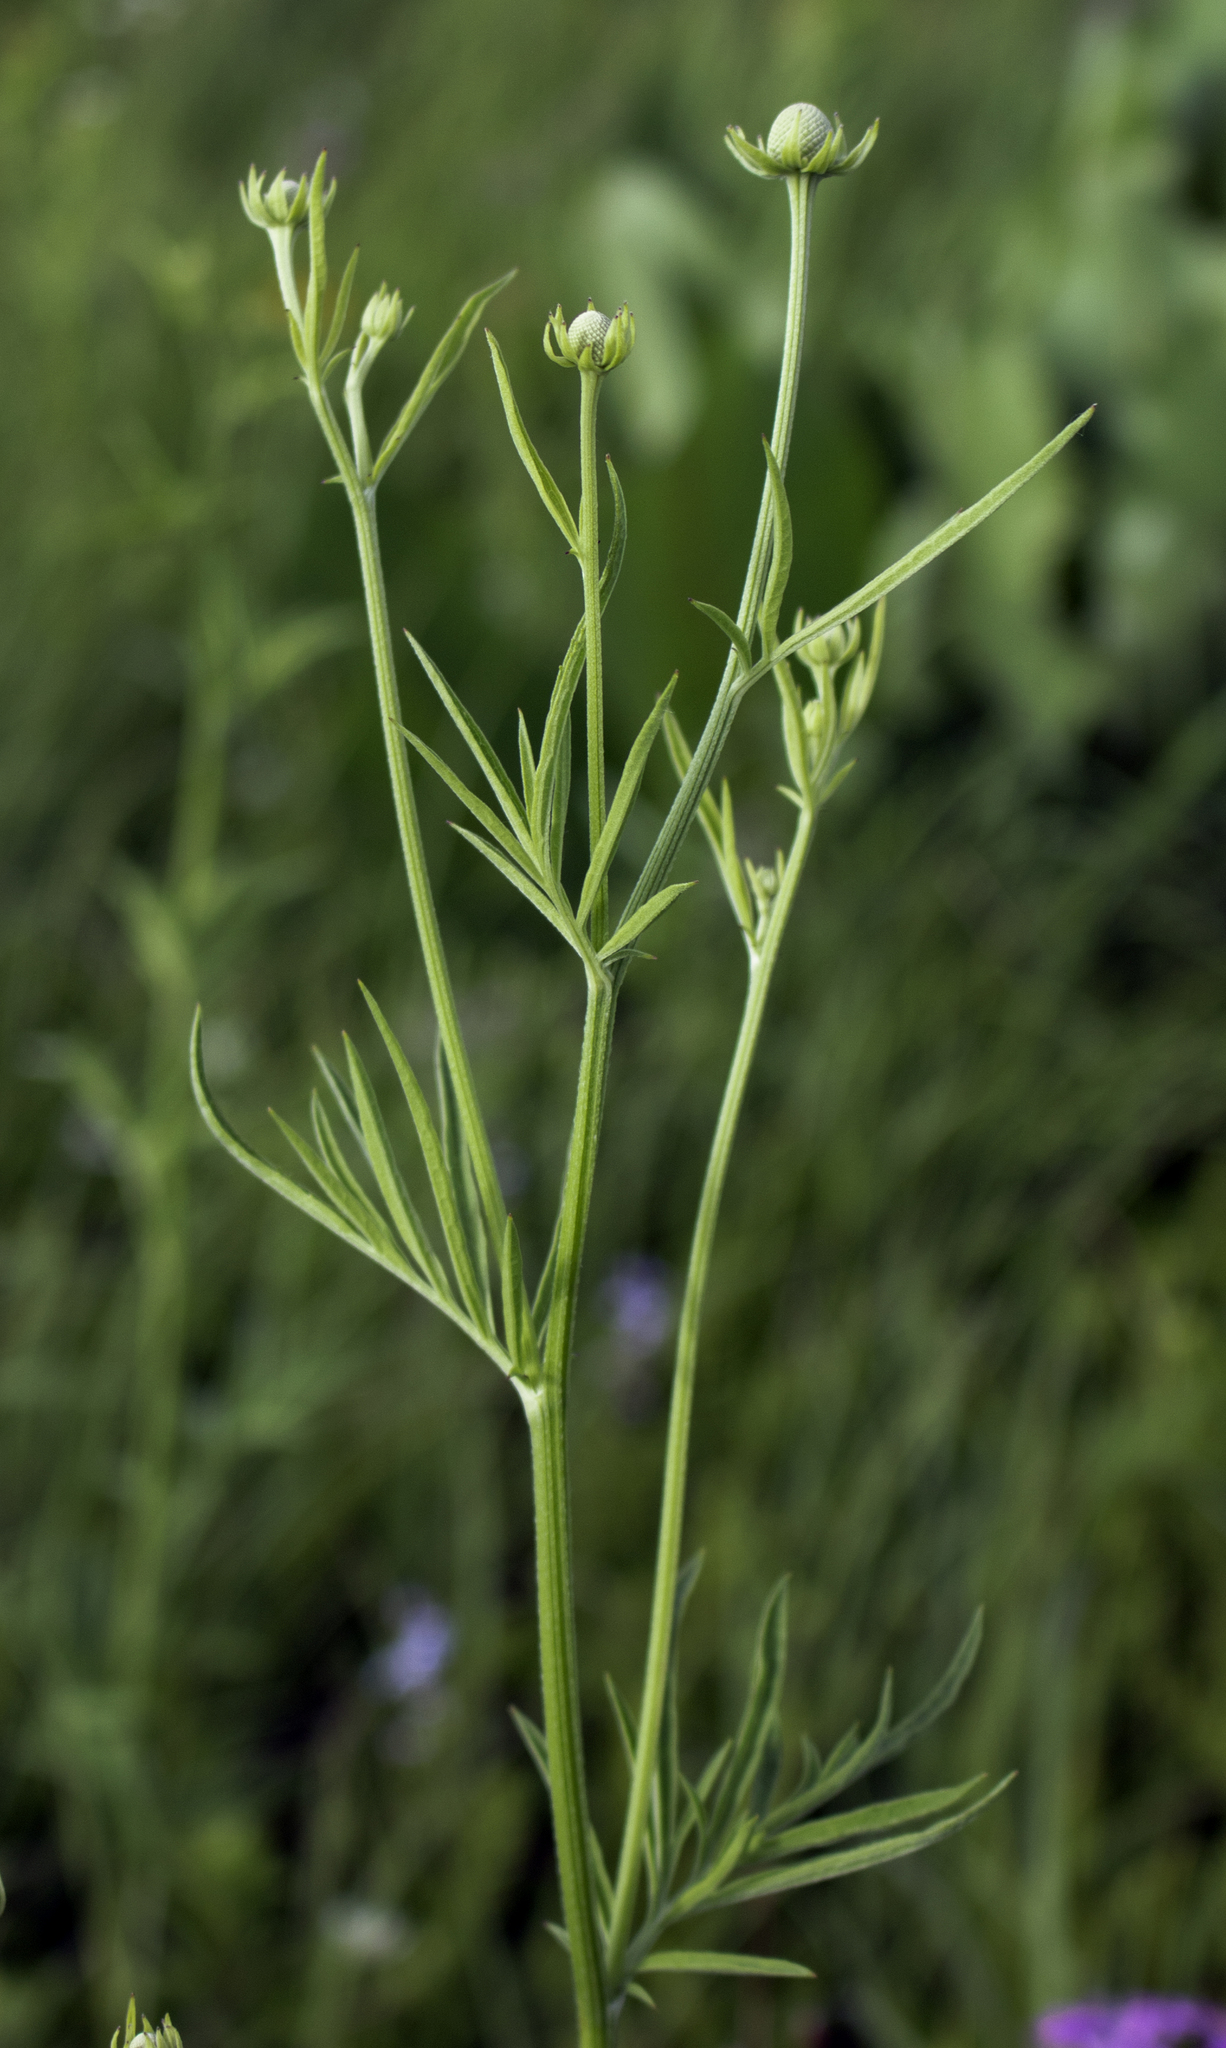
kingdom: Plantae
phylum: Tracheophyta
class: Magnoliopsida
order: Asterales
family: Asteraceae
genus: Ratibida
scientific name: Ratibida pinnata
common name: Drooping prairie-coneflower
